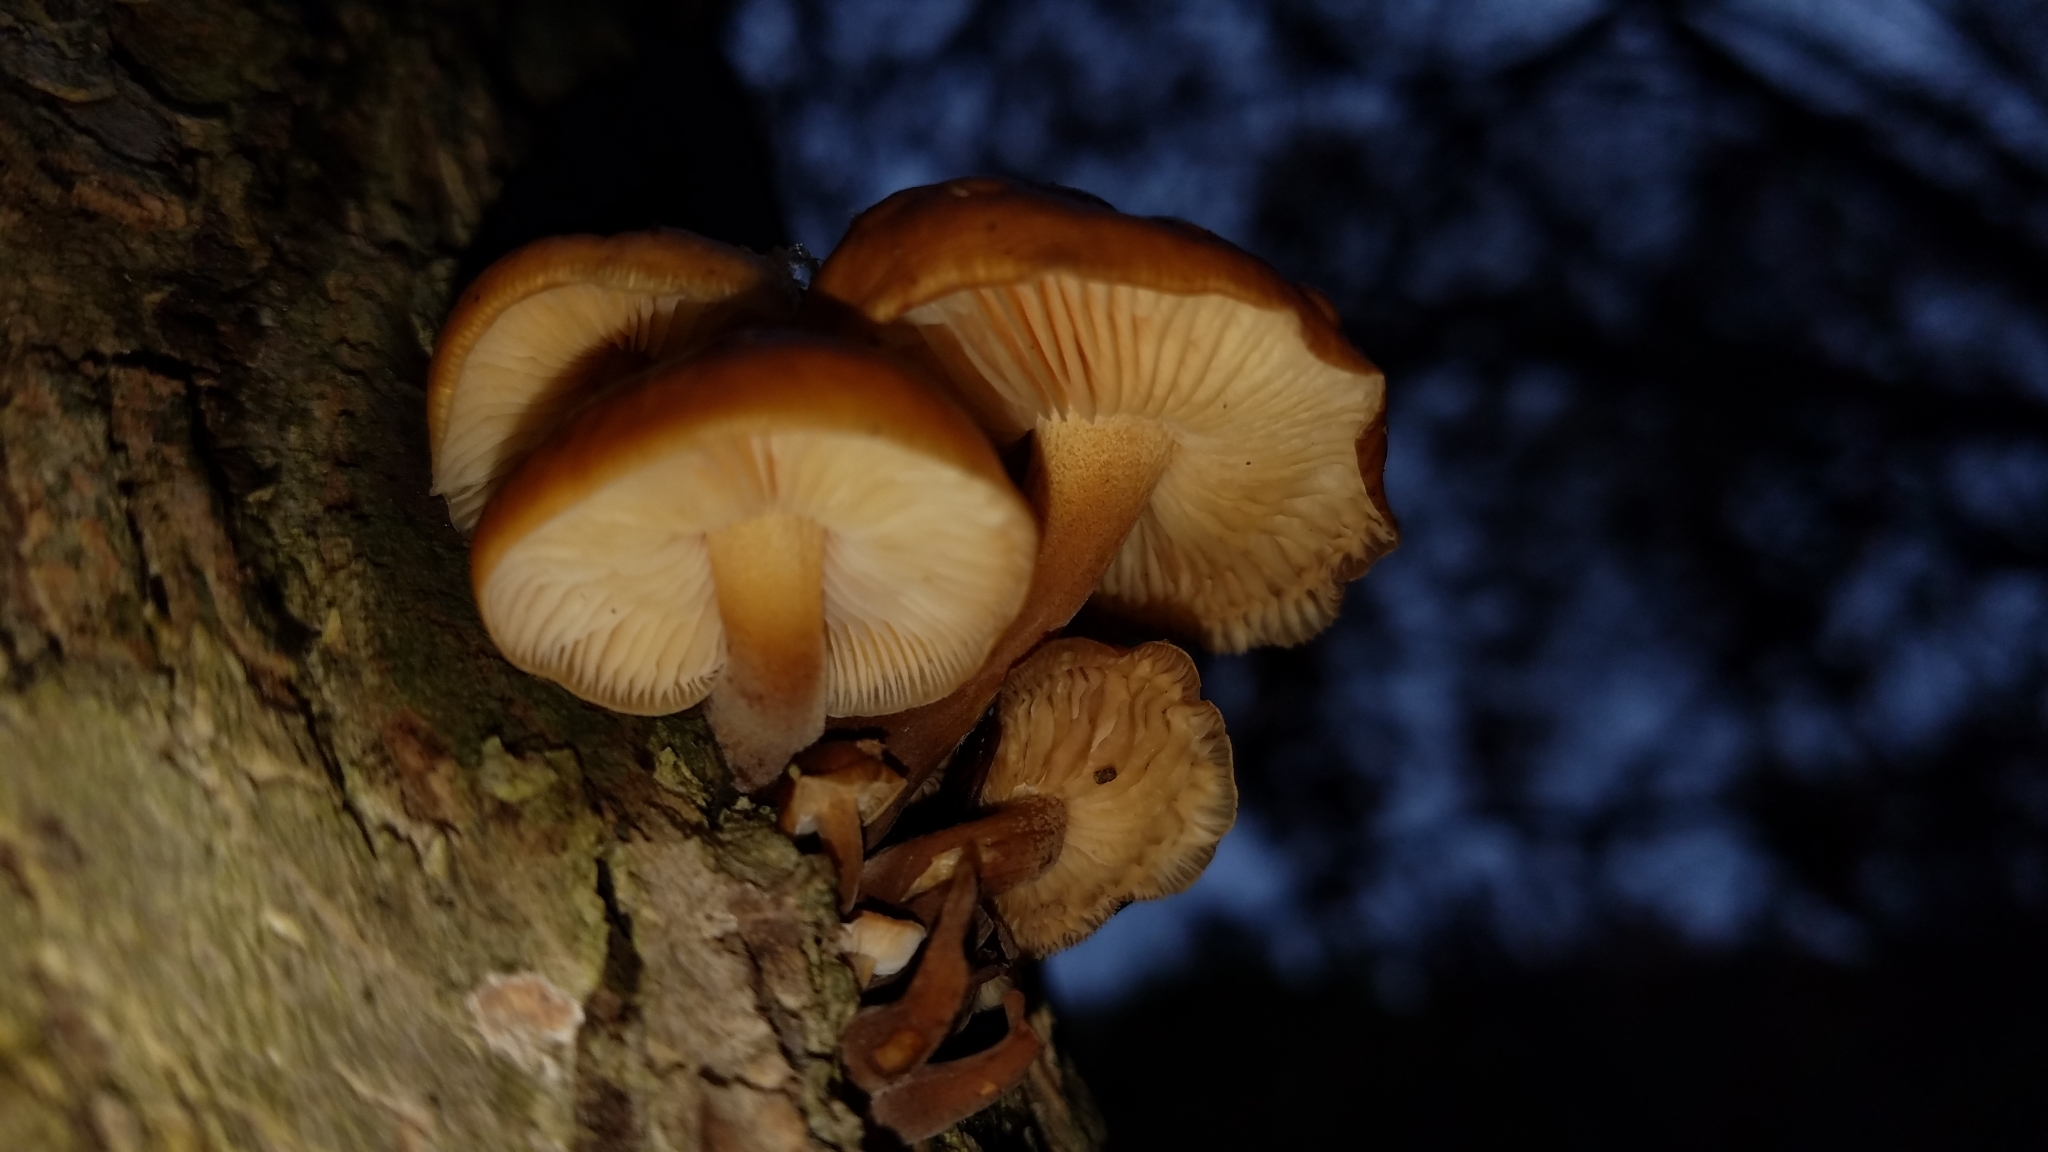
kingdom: Fungi
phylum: Basidiomycota
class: Agaricomycetes
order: Agaricales
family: Physalacriaceae
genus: Flammulina
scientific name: Flammulina velutipes
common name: Velvet shank
